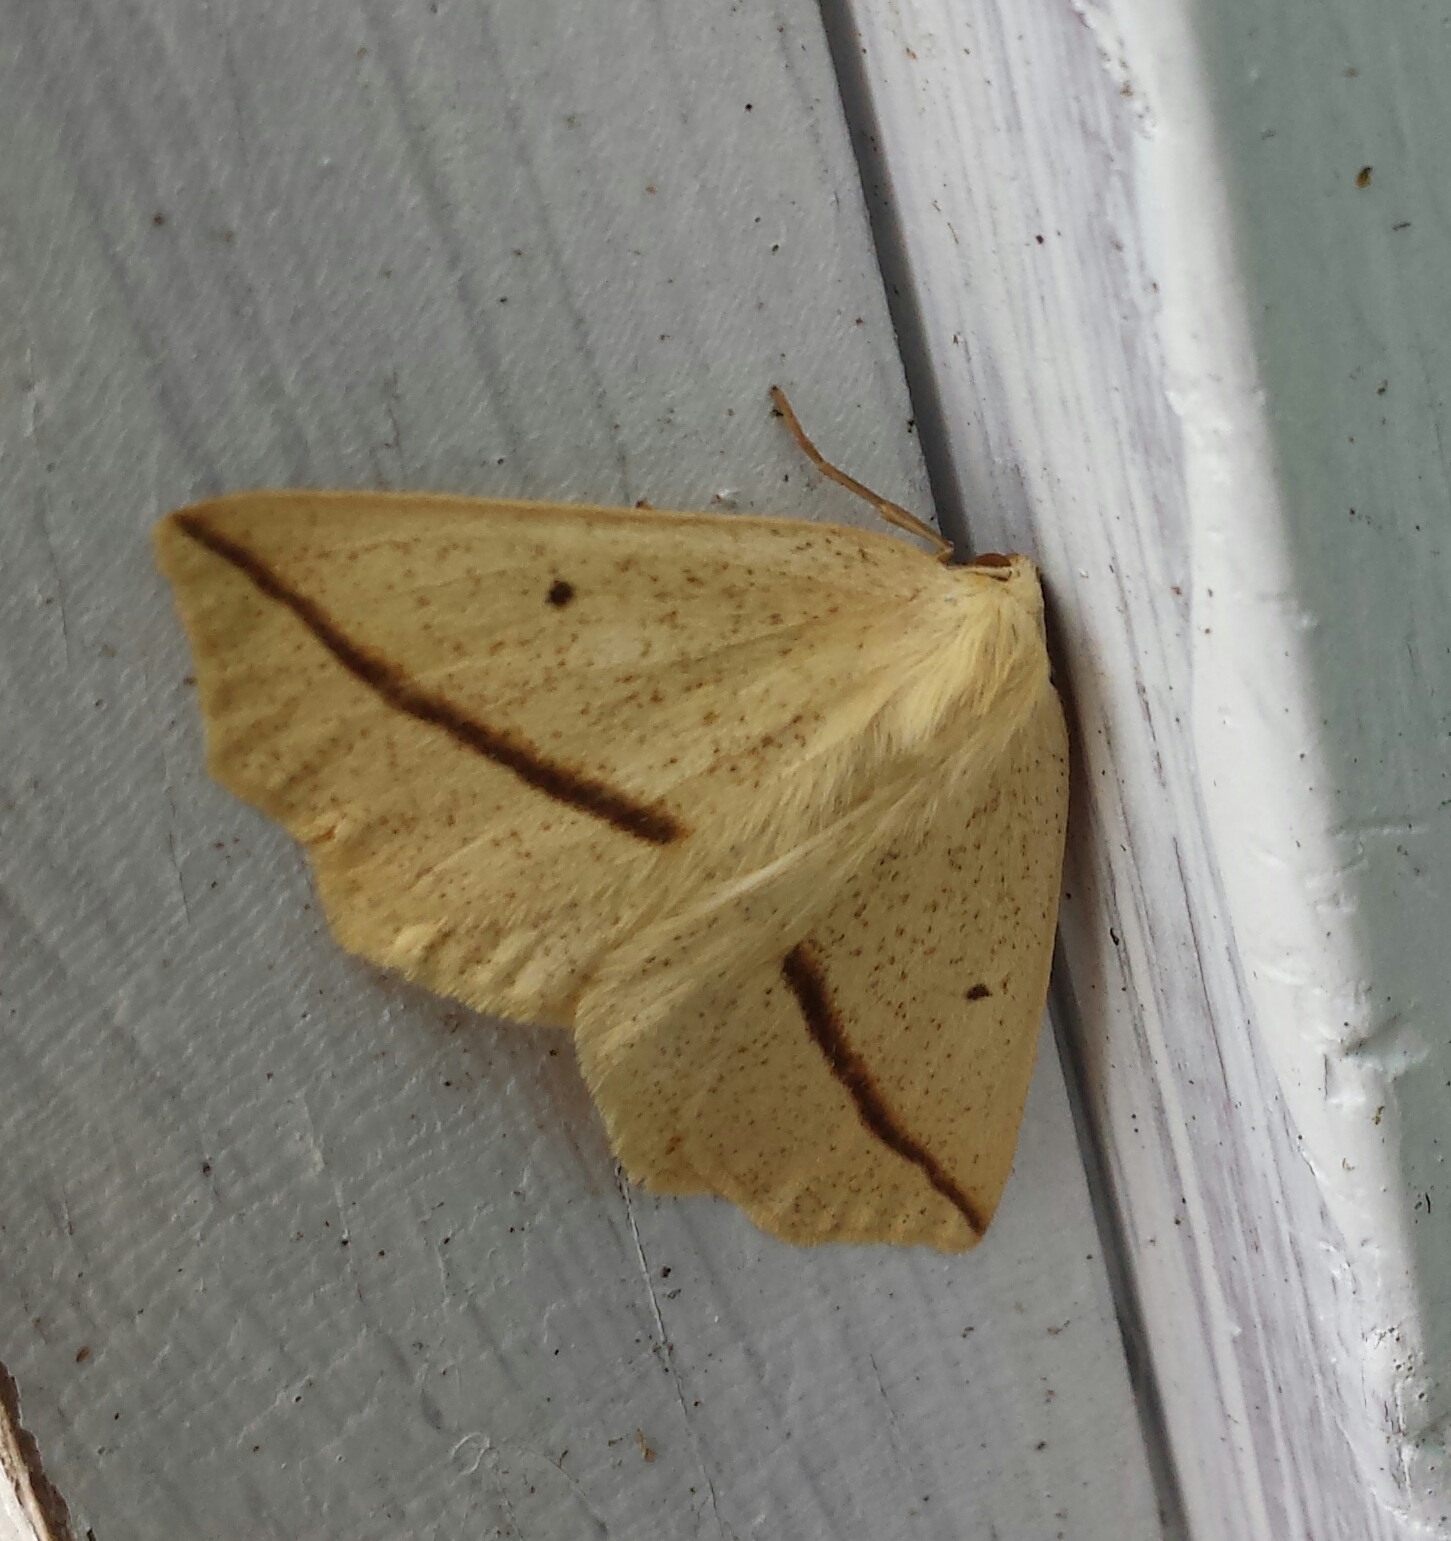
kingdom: Animalia
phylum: Arthropoda
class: Insecta
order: Lepidoptera
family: Geometridae
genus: Tetracis
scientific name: Tetracis crocallata
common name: Yellow slant-line
